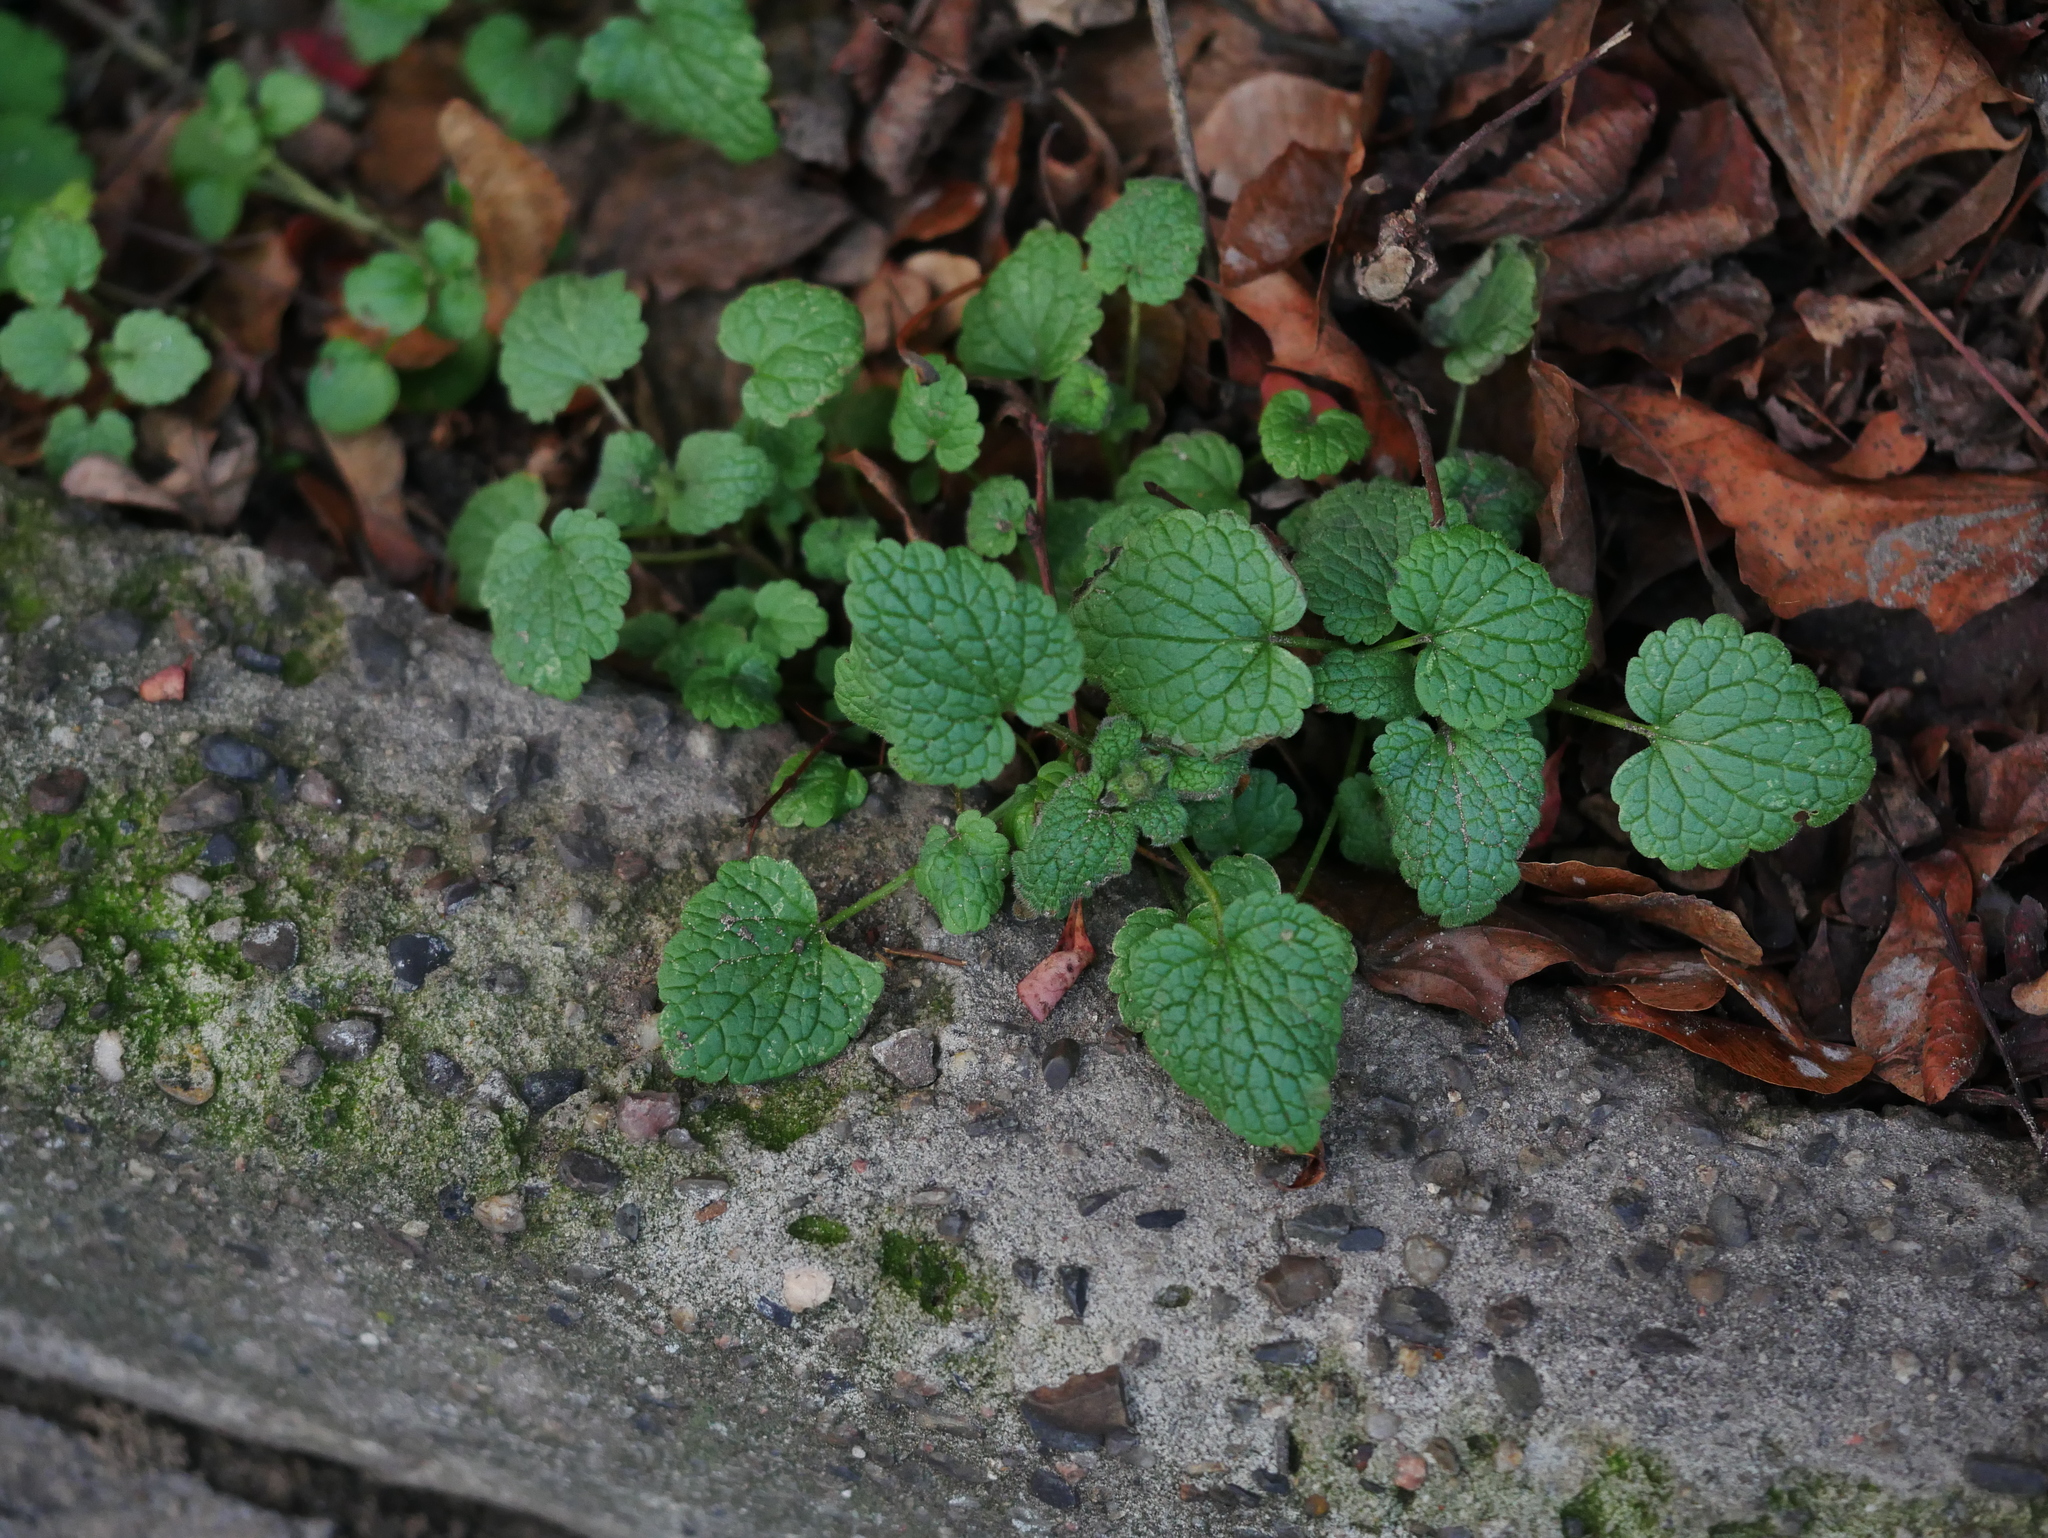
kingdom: Plantae
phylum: Tracheophyta
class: Magnoliopsida
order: Lamiales
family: Lamiaceae
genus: Lamium
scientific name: Lamium purpureum
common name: Red dead-nettle
